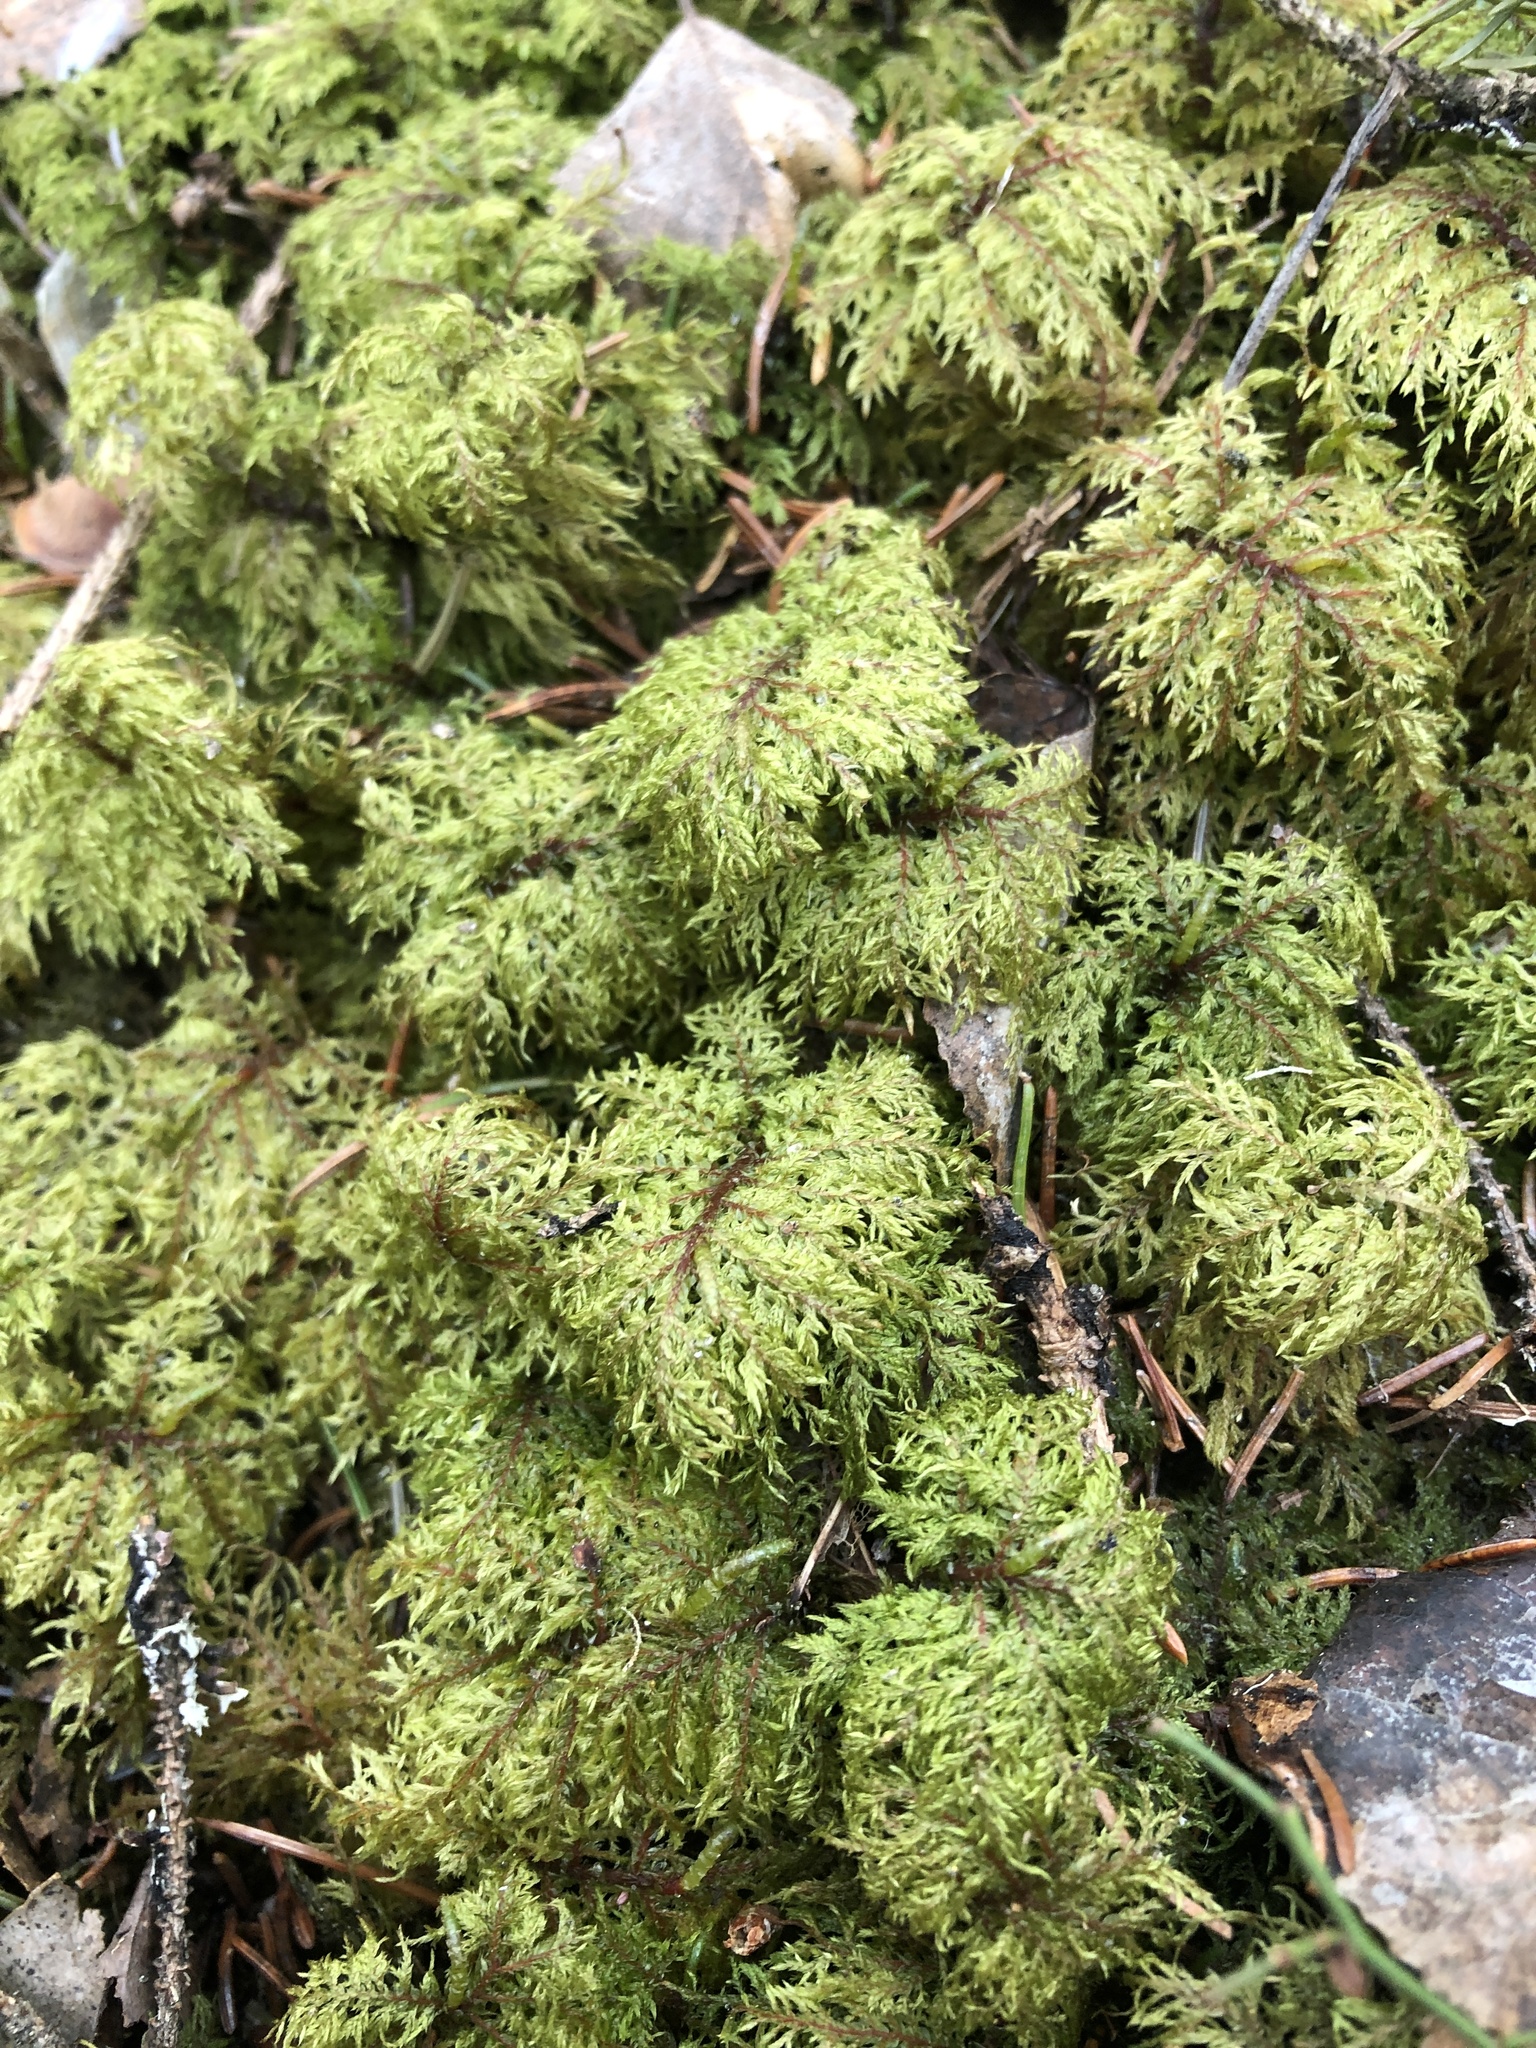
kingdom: Plantae
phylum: Bryophyta
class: Bryopsida
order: Hypnales
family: Hylocomiaceae
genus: Hylocomium
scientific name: Hylocomium splendens
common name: Stairstep moss
